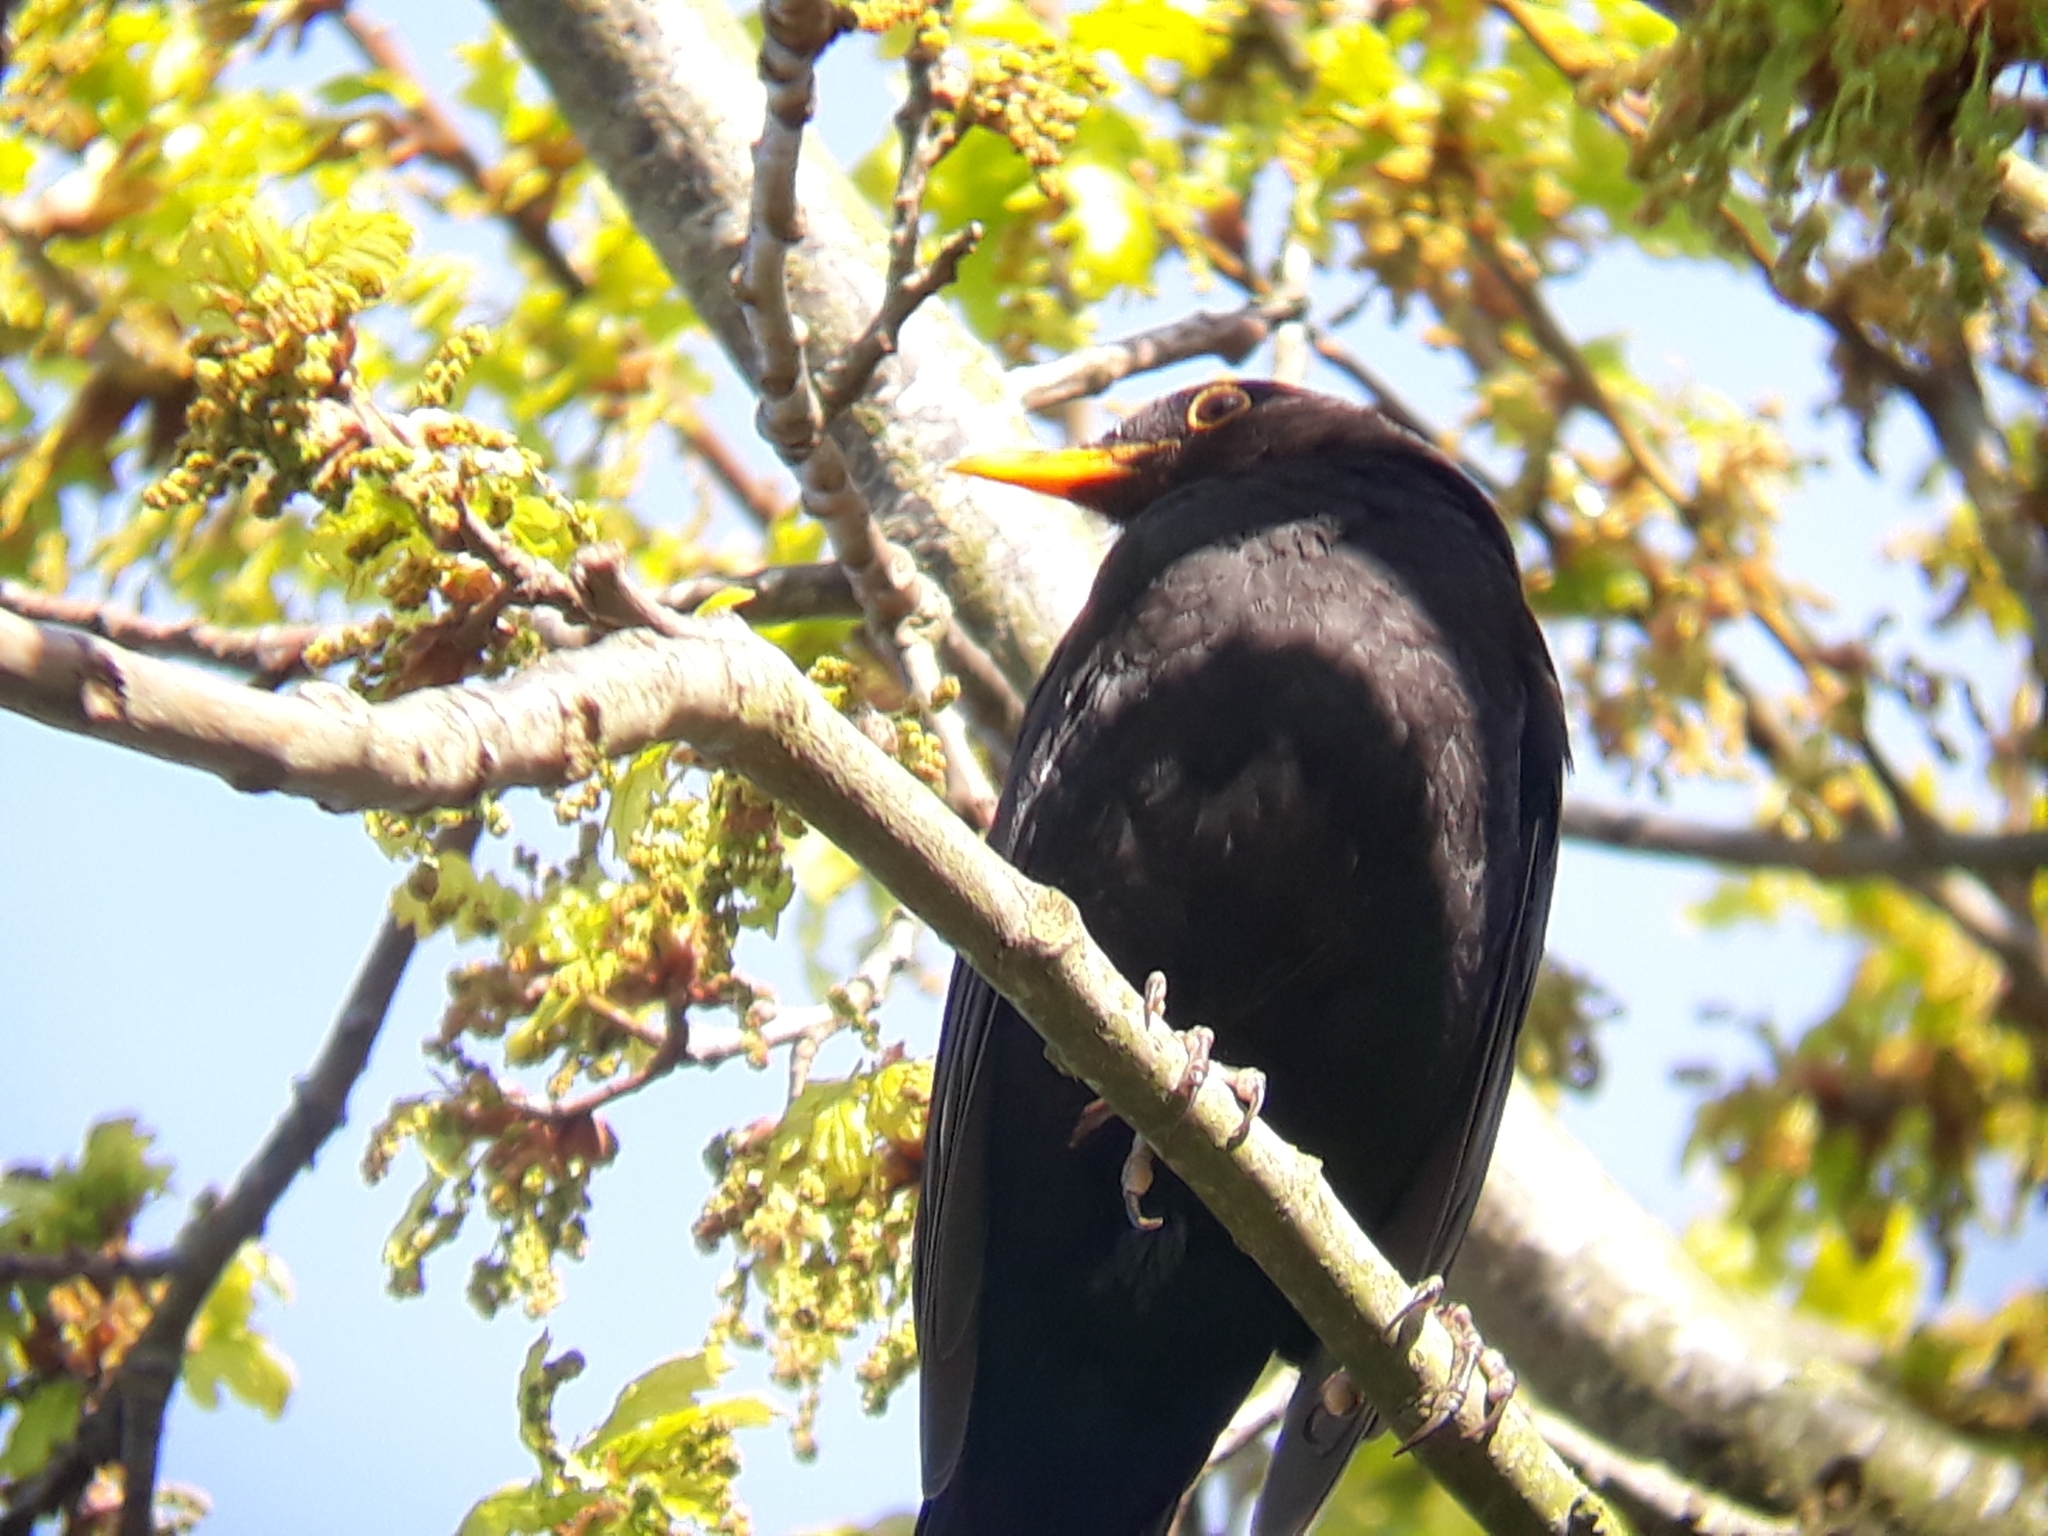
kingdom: Animalia
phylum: Chordata
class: Aves
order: Passeriformes
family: Turdidae
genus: Turdus
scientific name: Turdus merula
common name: Common blackbird
